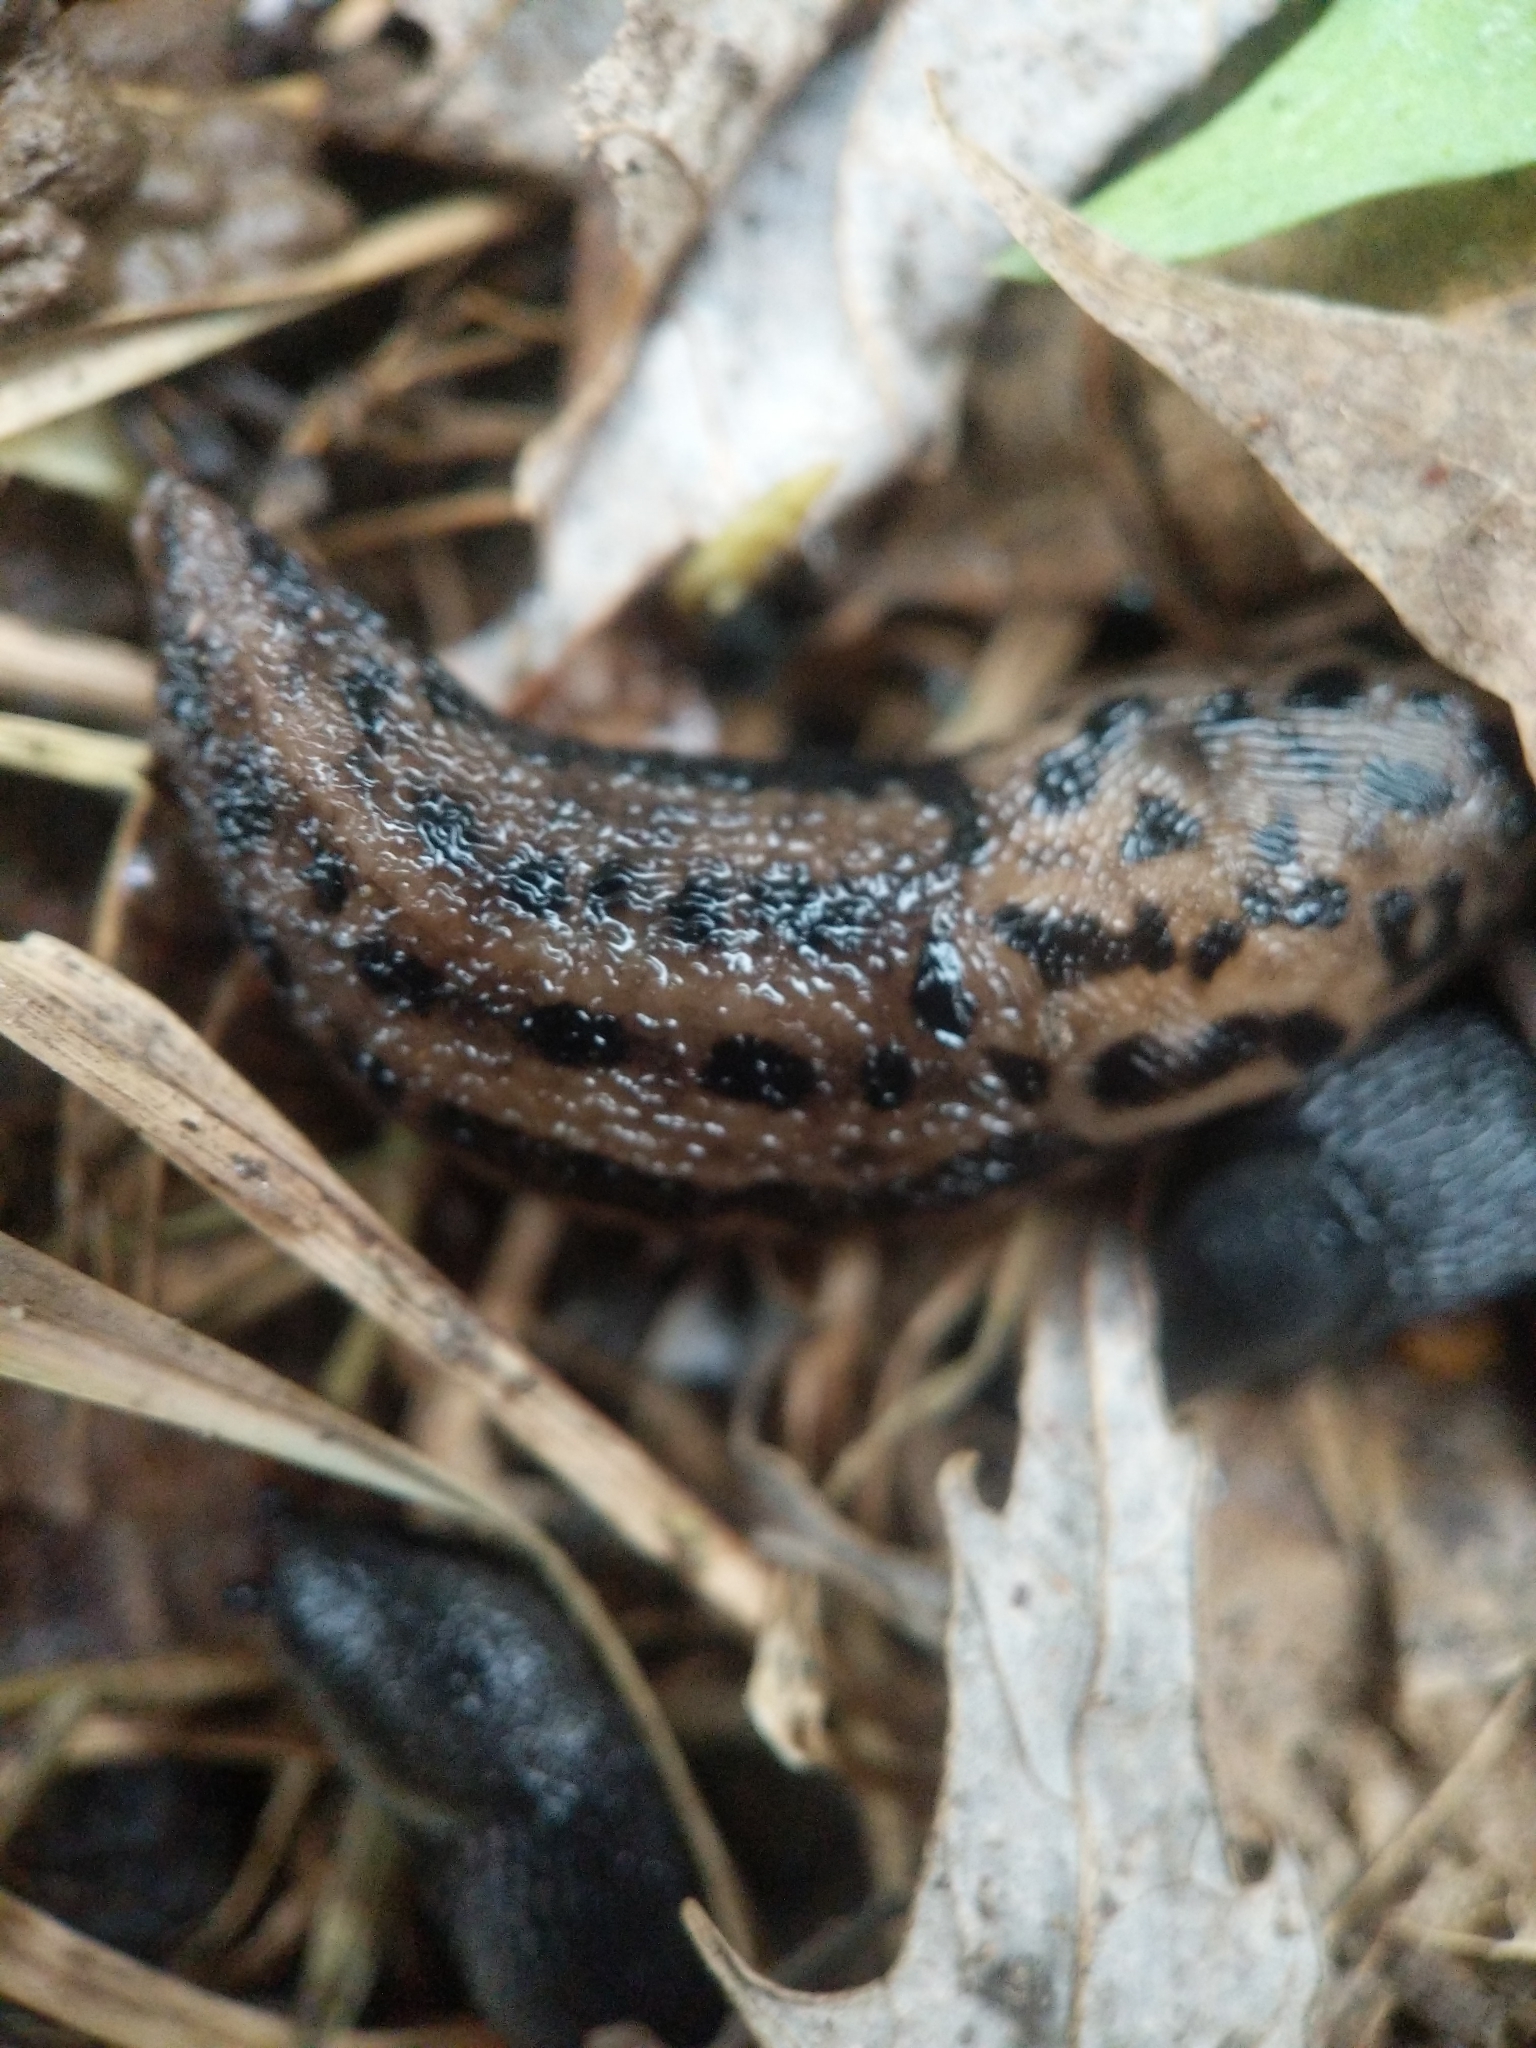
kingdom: Animalia
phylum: Mollusca
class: Gastropoda
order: Stylommatophora
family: Limacidae
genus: Limax
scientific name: Limax maximus
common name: Great grey slug
